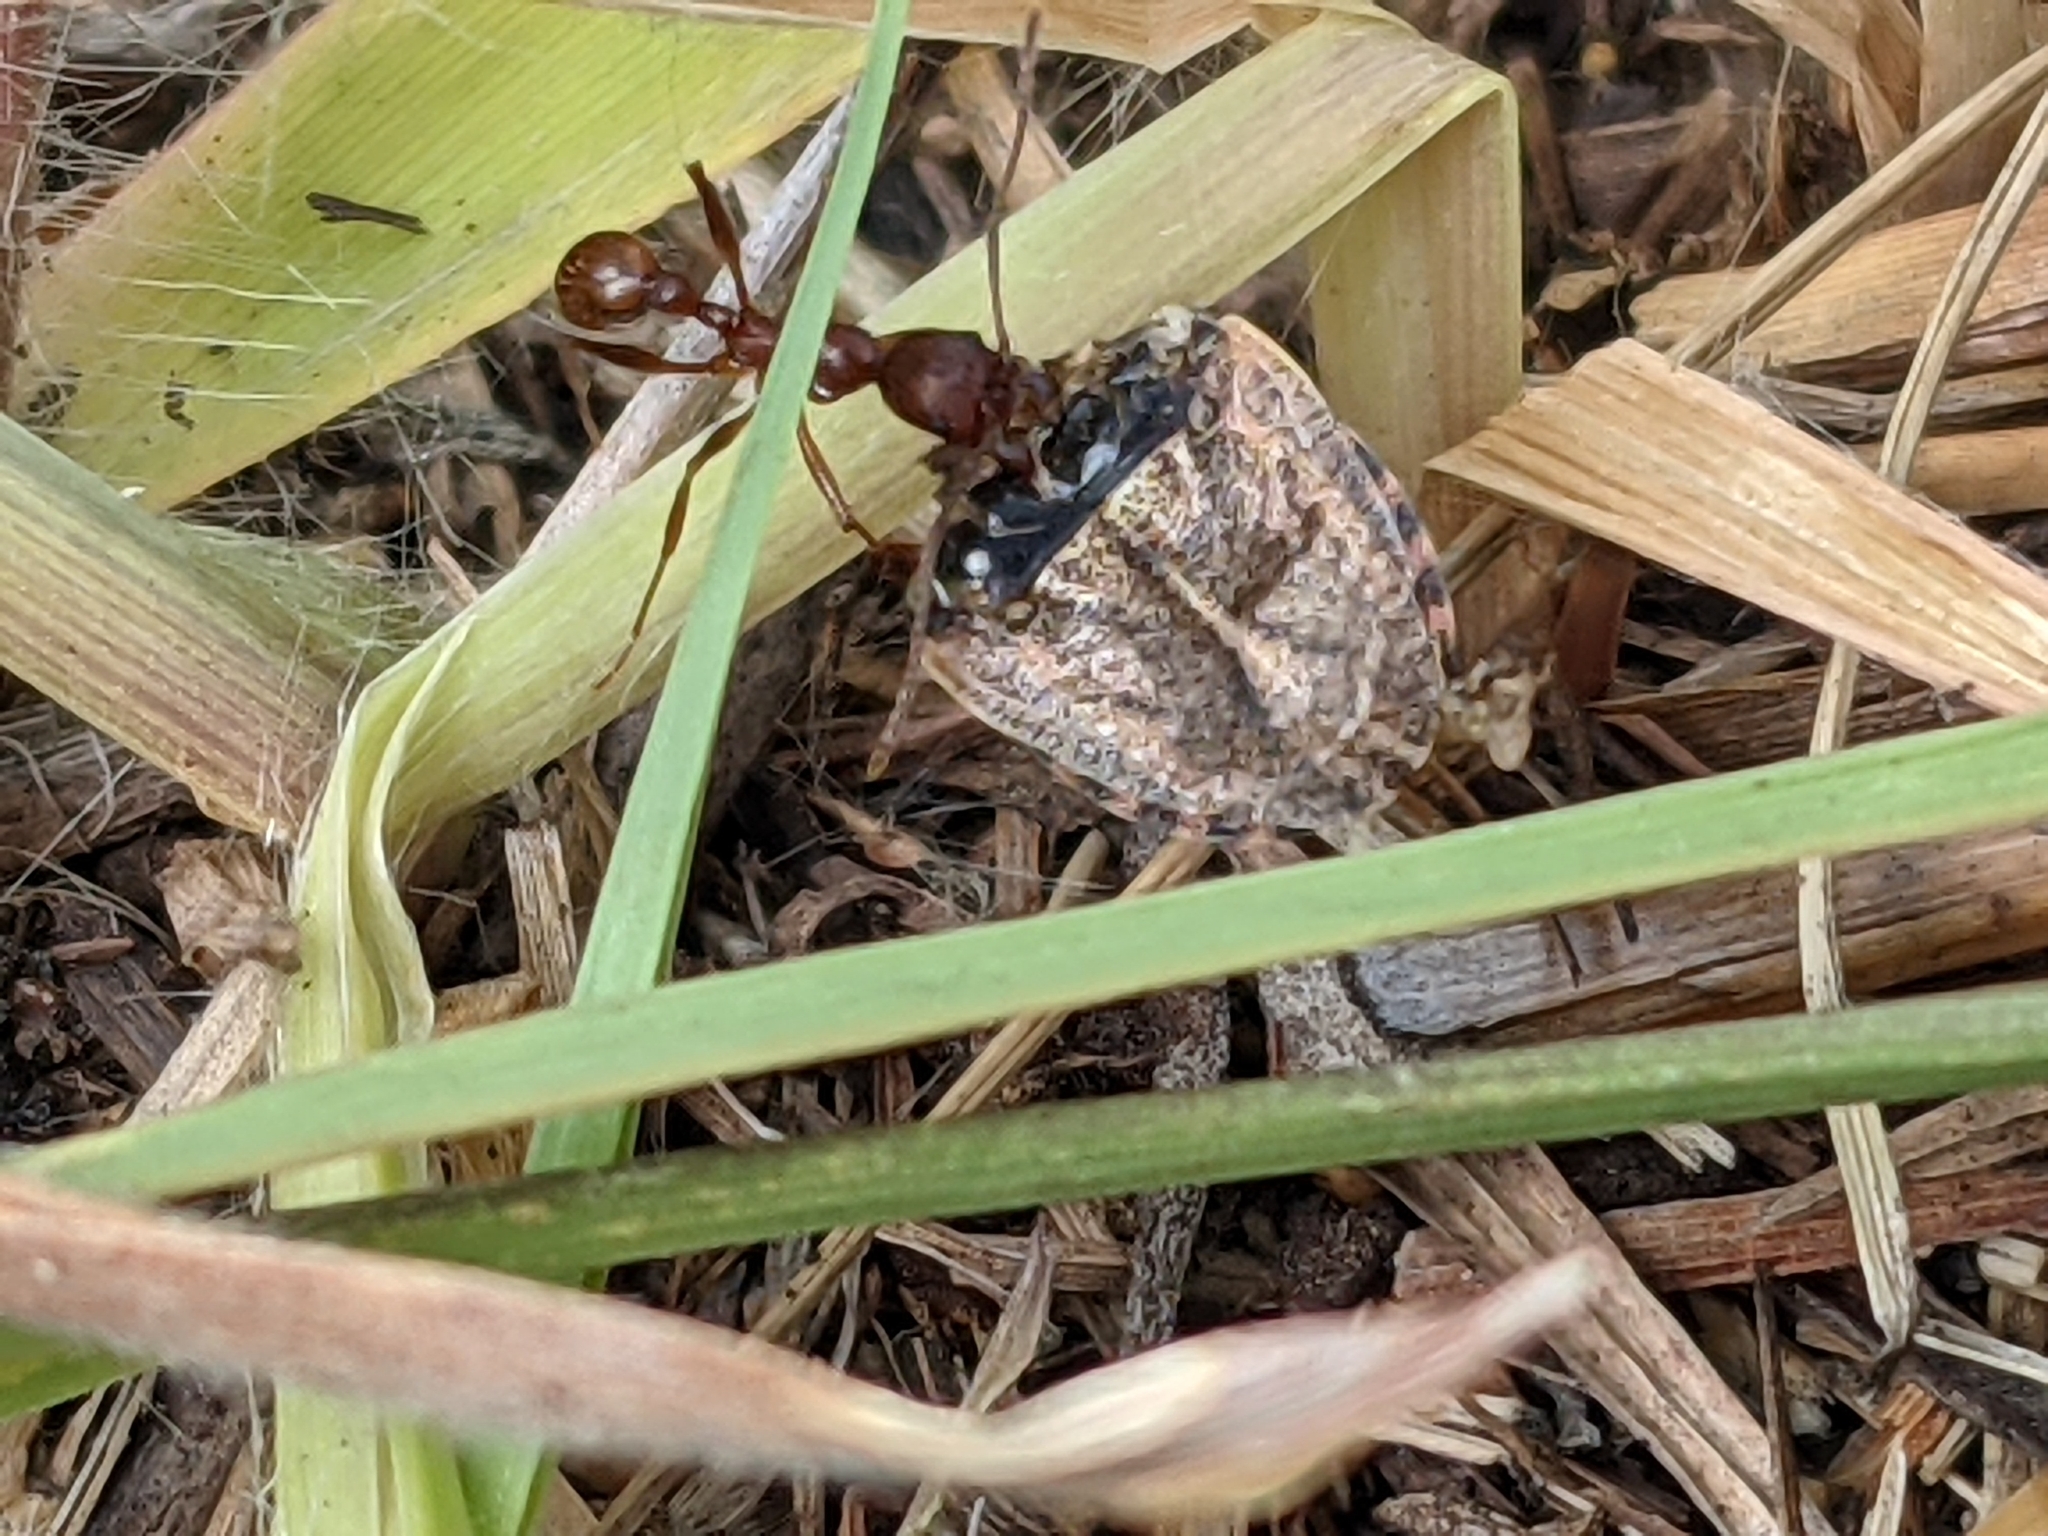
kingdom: Animalia
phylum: Arthropoda
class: Insecta
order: Hymenoptera
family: Formicidae
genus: Aphaenogaster
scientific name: Aphaenogaster treatae
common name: Treat's collared ant
